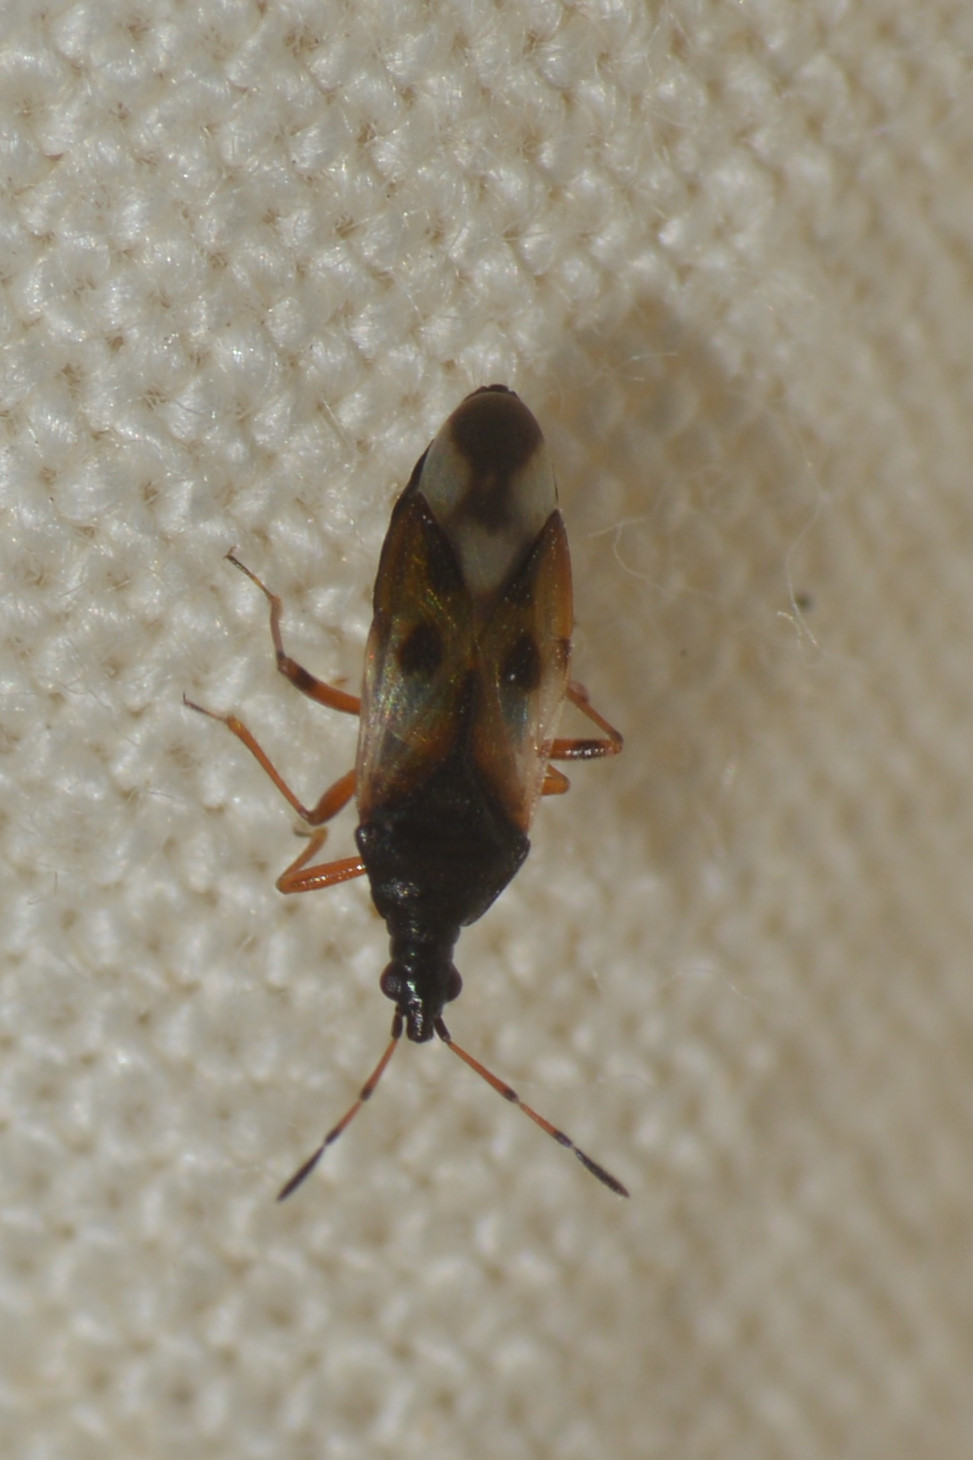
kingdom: Animalia
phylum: Arthropoda
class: Insecta
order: Hemiptera
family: Anthocoridae
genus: Anthocoris
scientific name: Anthocoris nemorum
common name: Minute pirate bug
